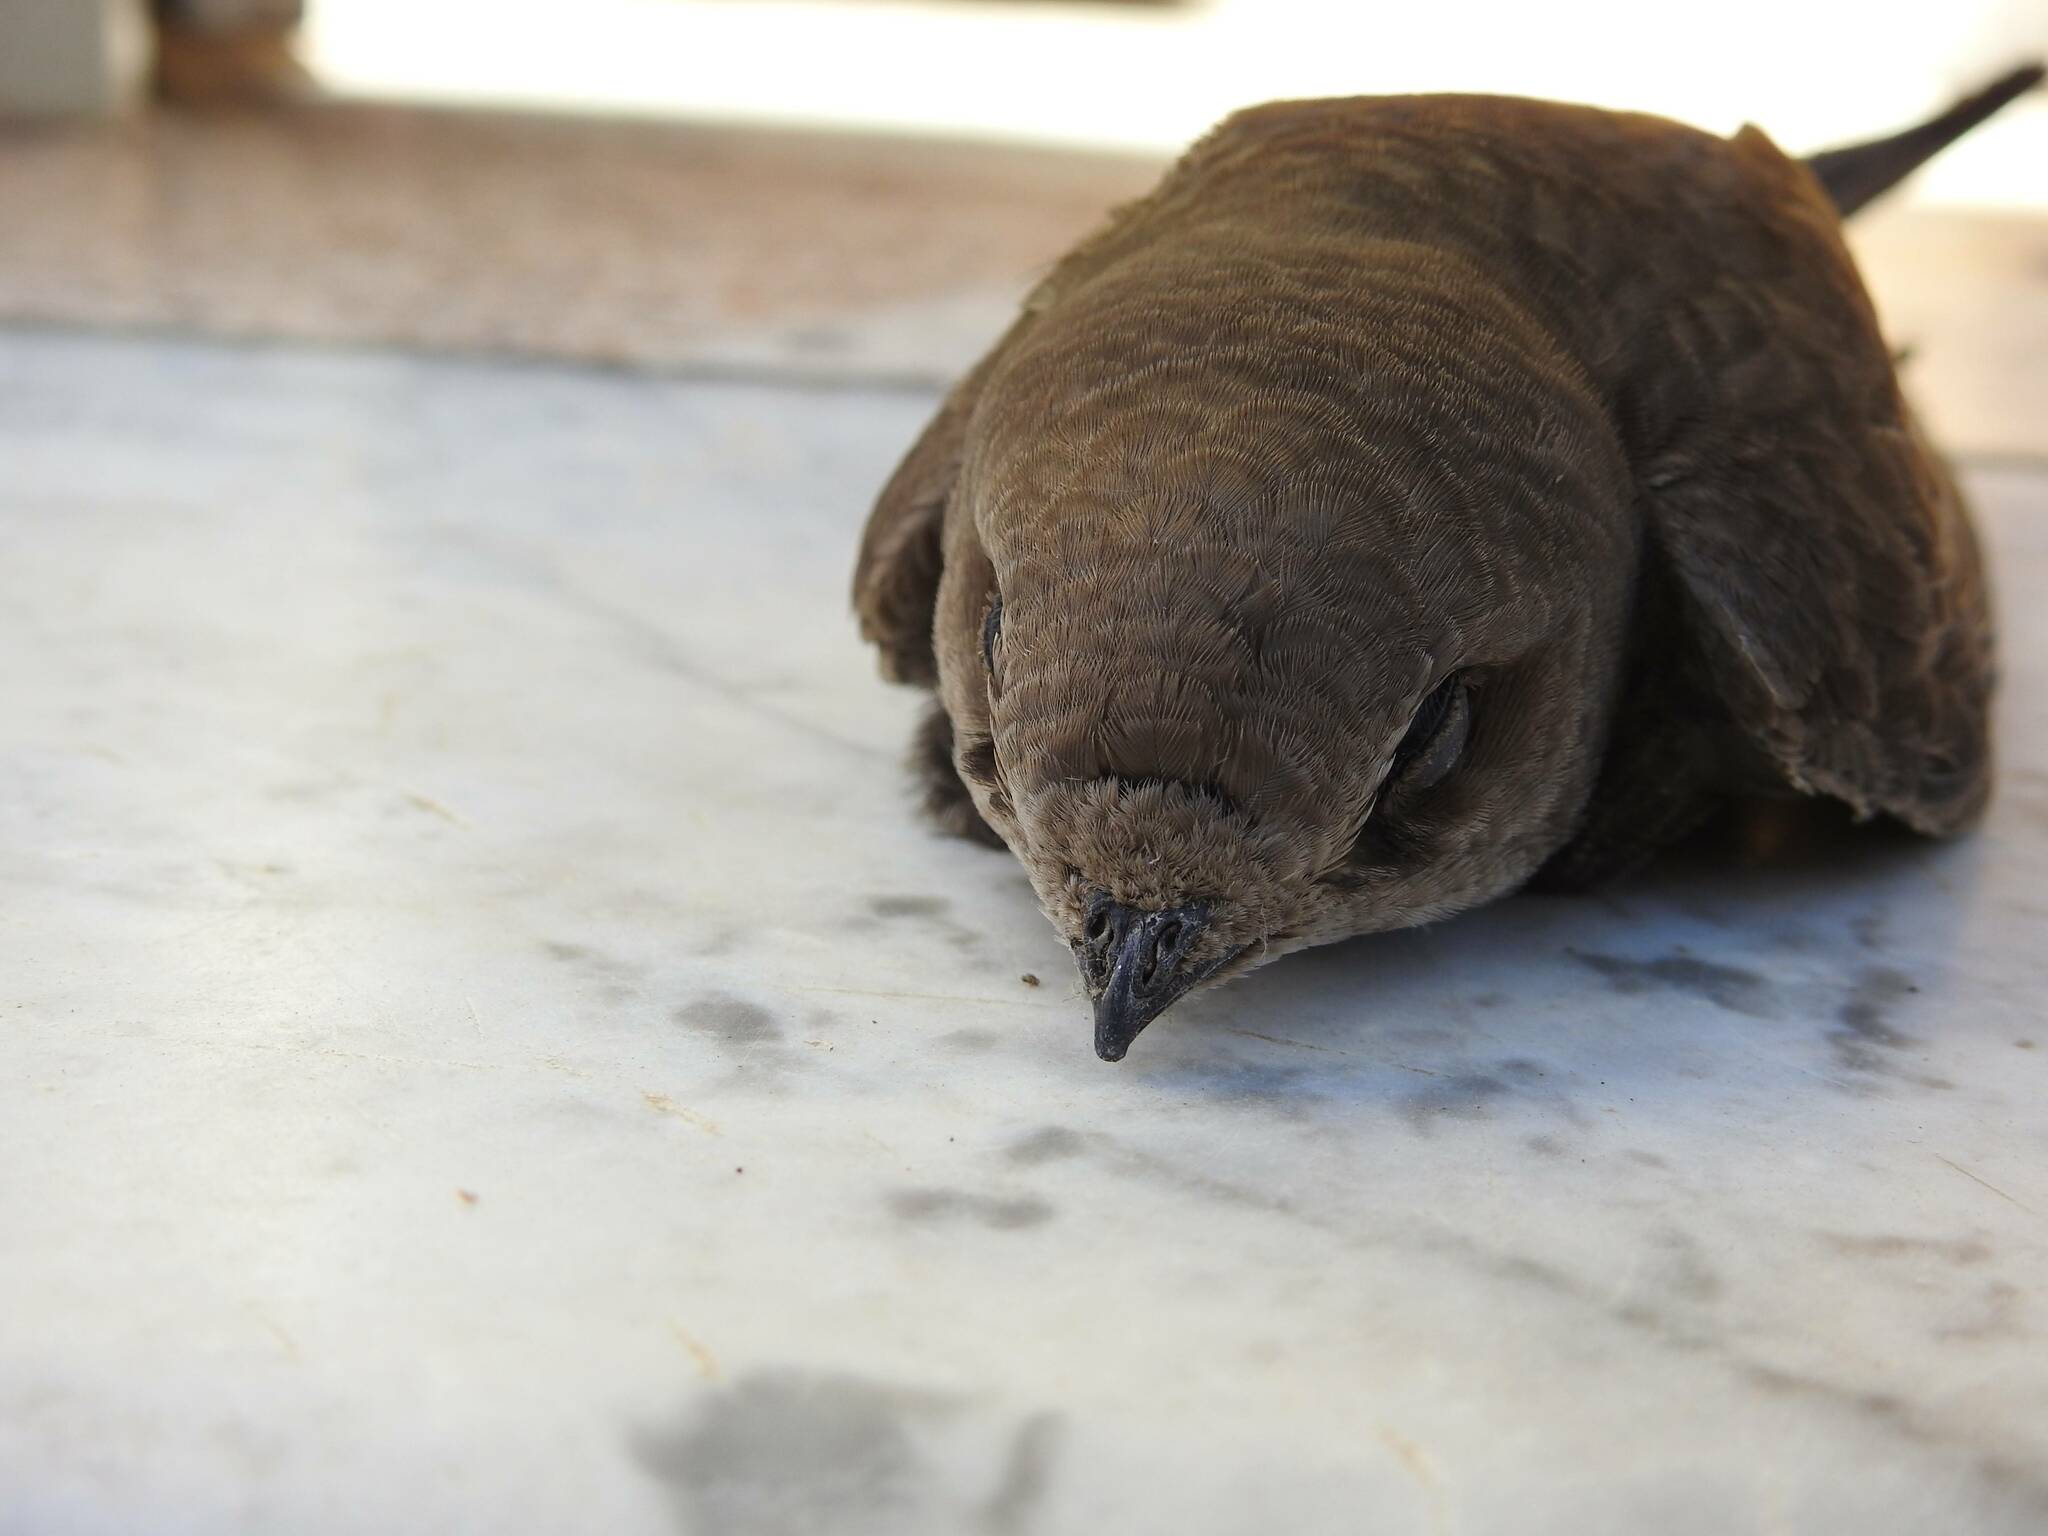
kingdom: Animalia
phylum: Chordata
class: Aves
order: Apodiformes
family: Apodidae
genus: Apus
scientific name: Apus pallidus
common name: Pallid swift
